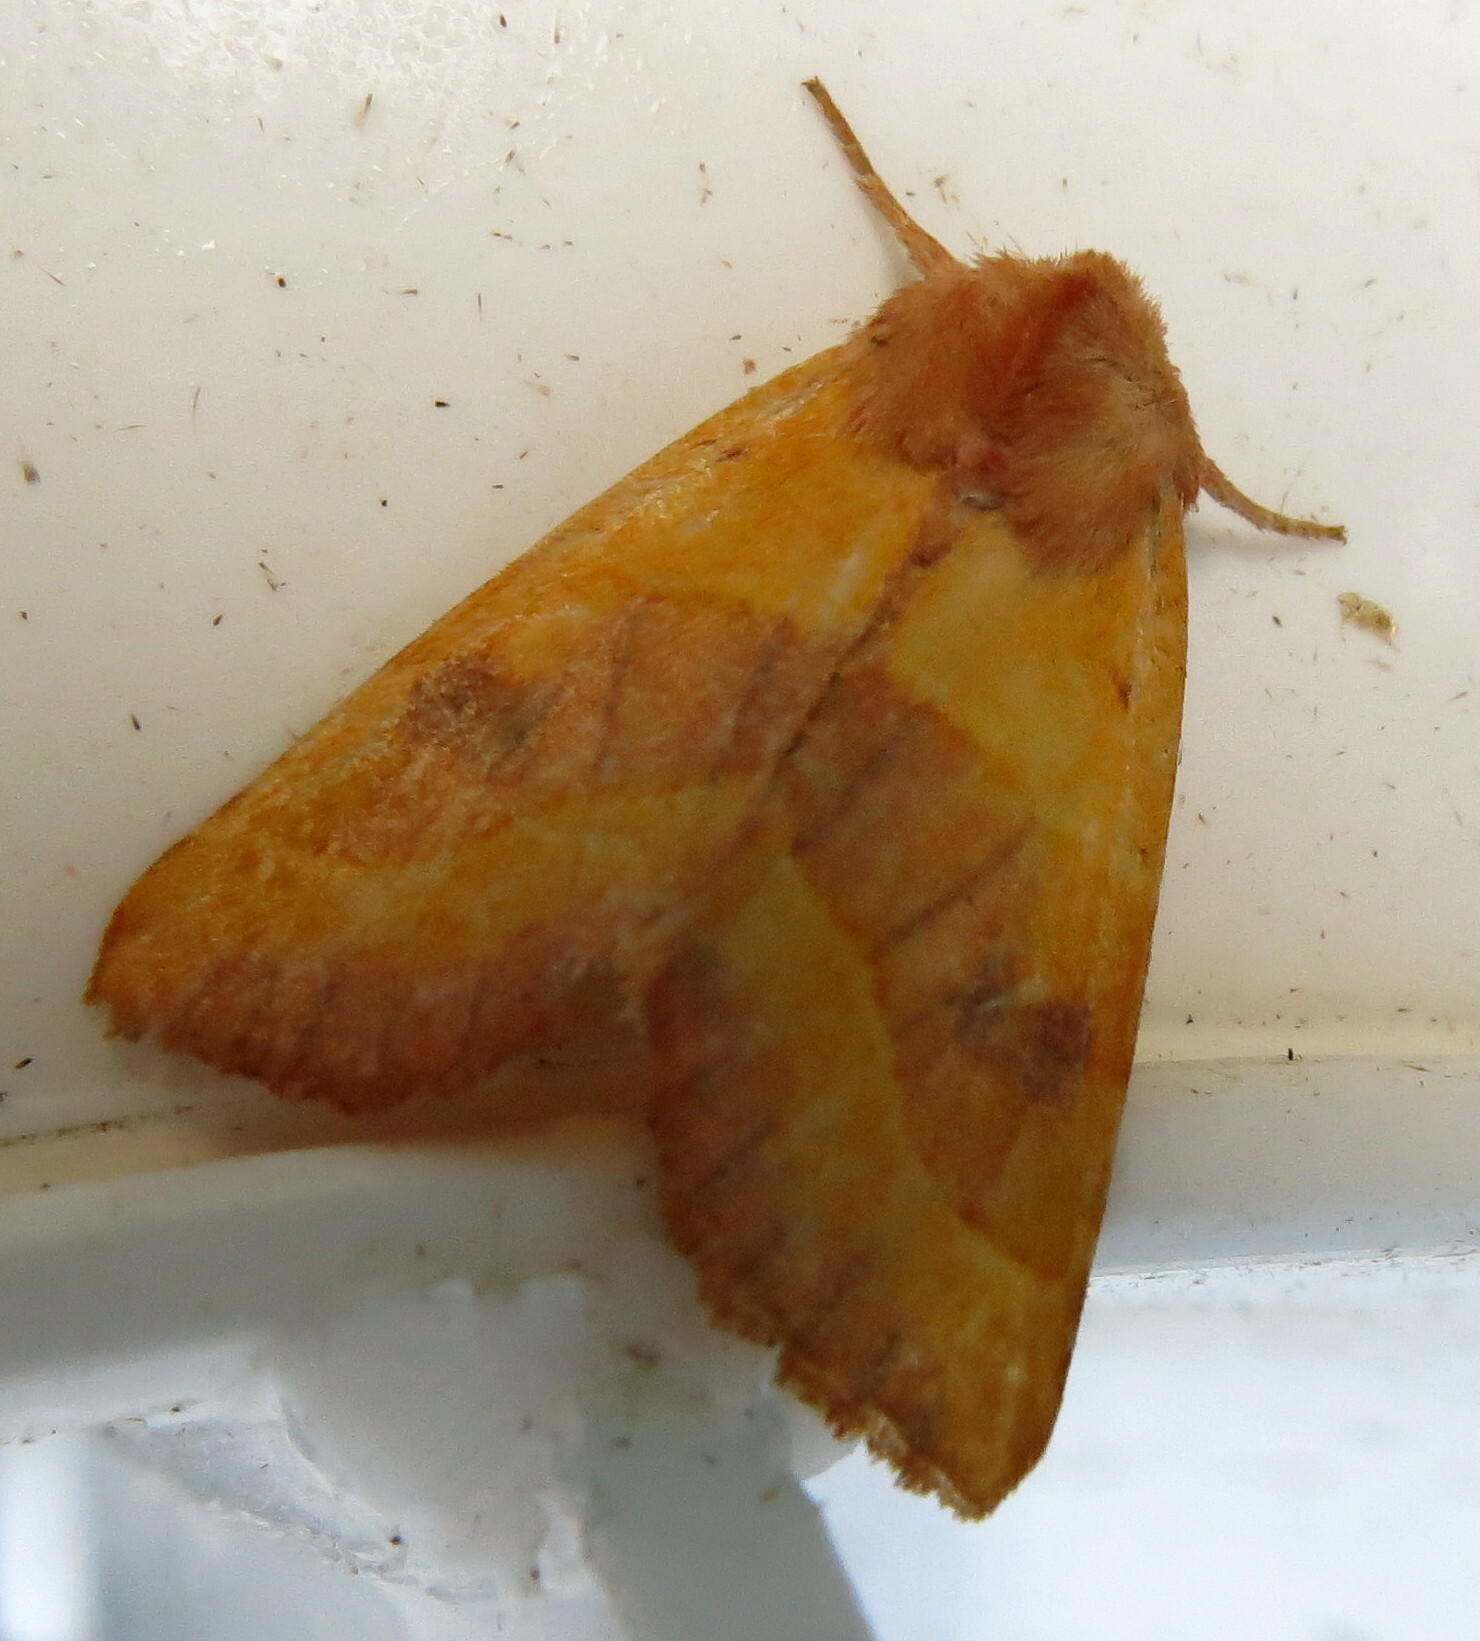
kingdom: Animalia
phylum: Arthropoda
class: Insecta
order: Lepidoptera
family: Noctuidae
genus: Atethmia
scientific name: Atethmia centrago
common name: Centre-barred sallow
